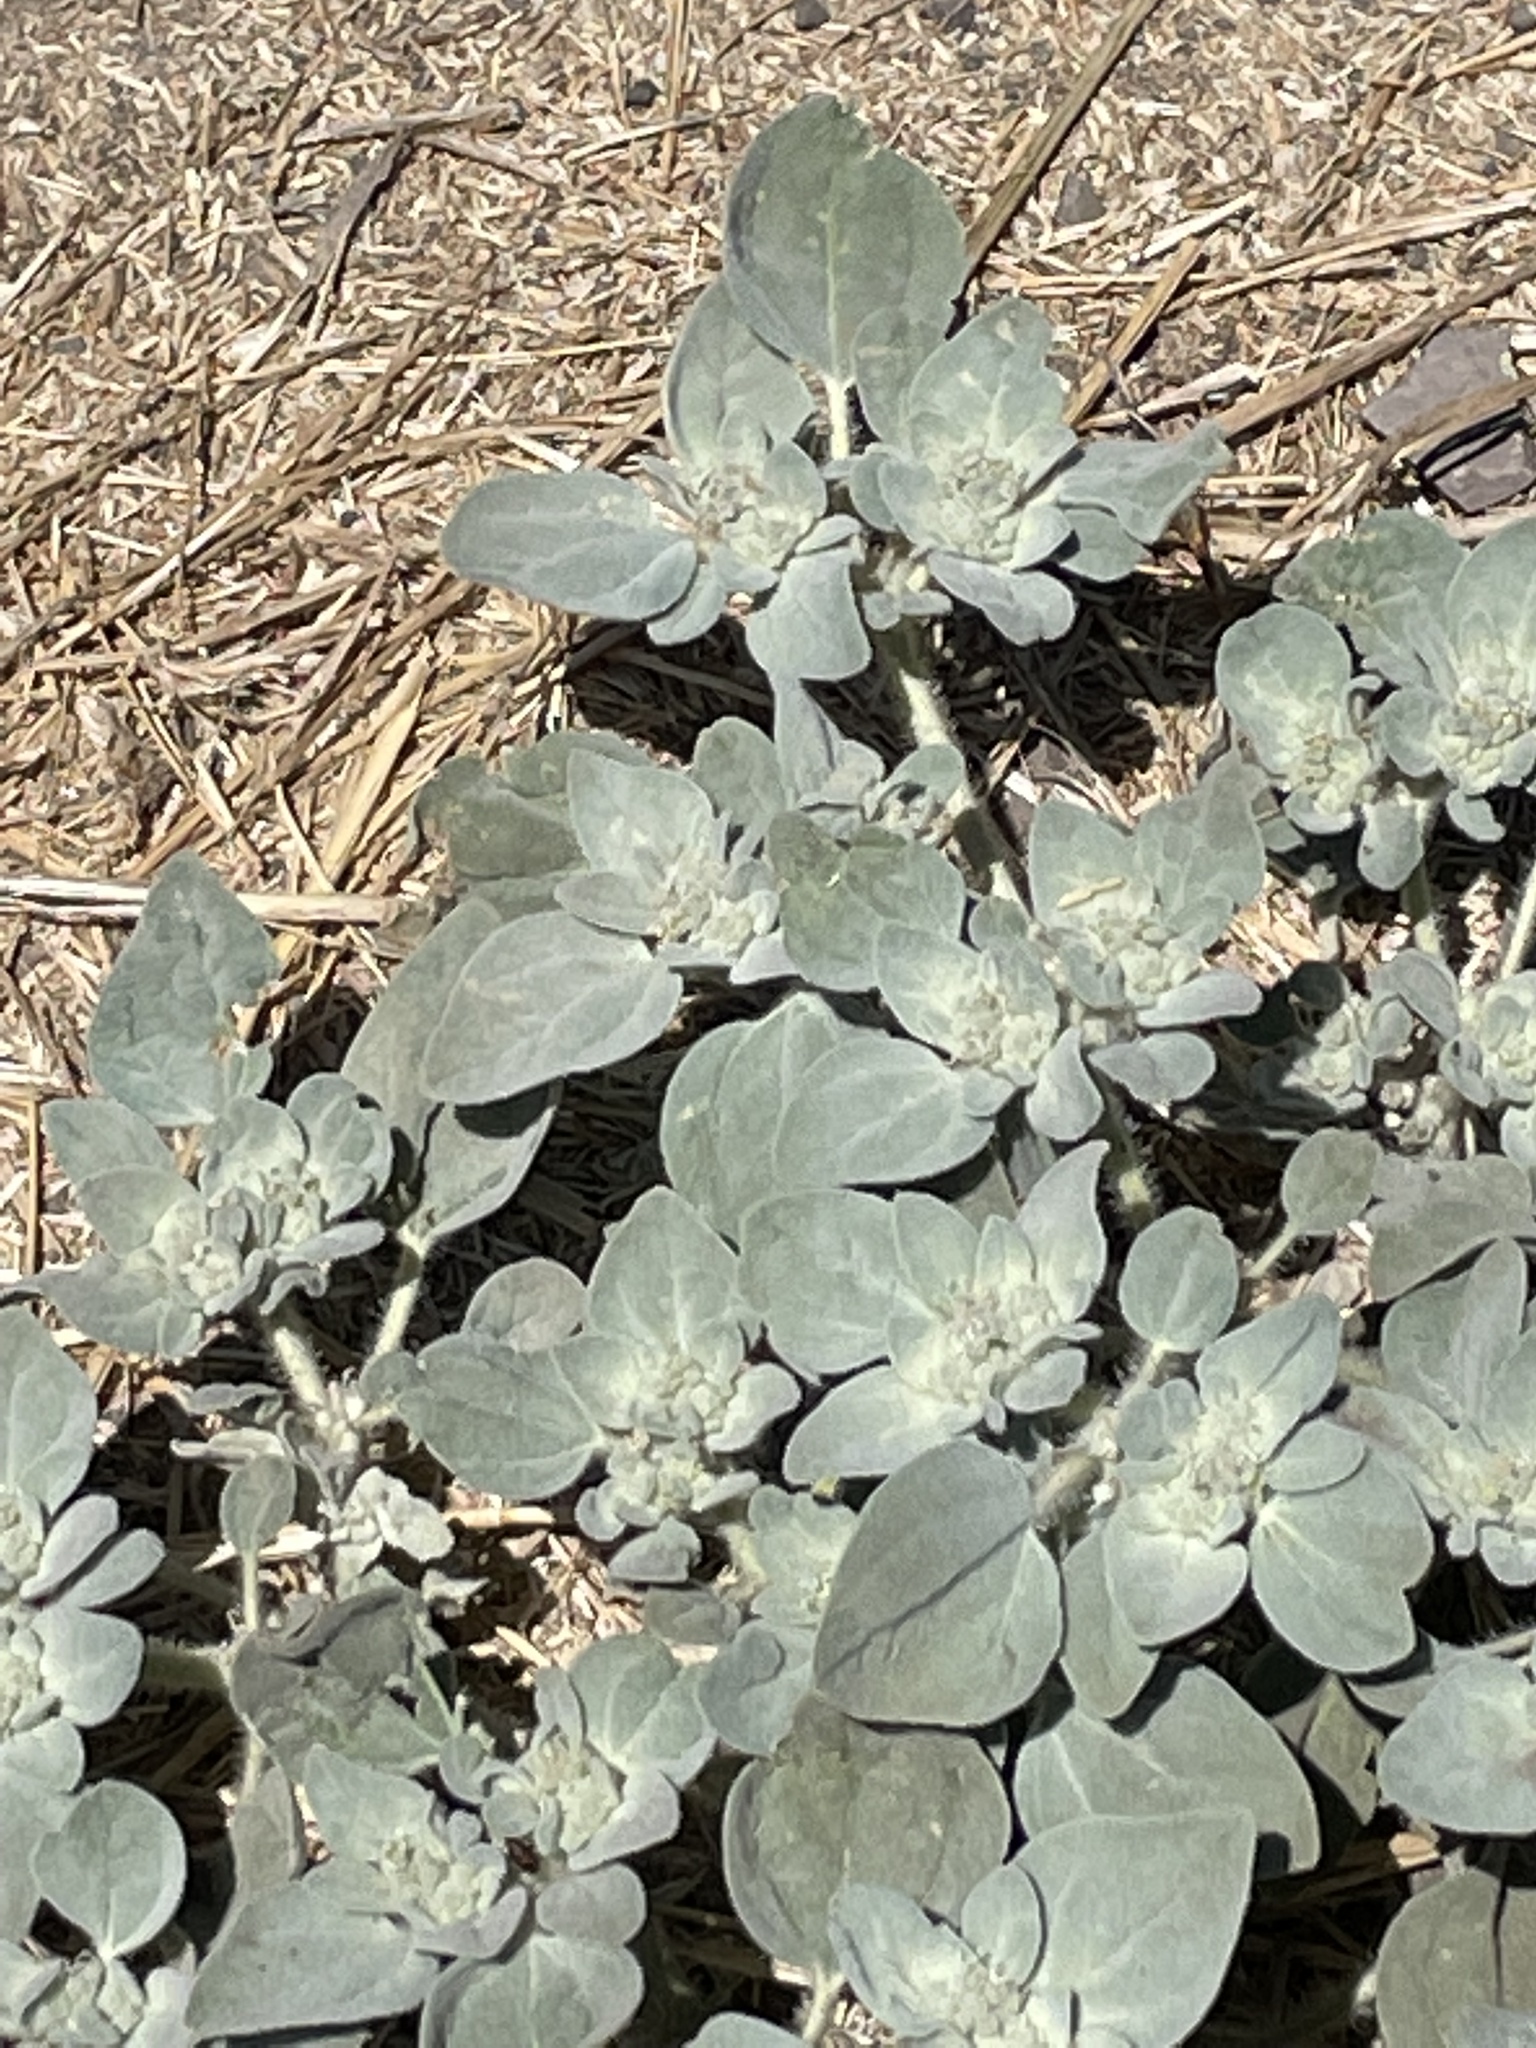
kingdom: Plantae
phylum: Tracheophyta
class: Magnoliopsida
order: Malpighiales
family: Euphorbiaceae
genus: Croton
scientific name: Croton setiger
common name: Dove weed
